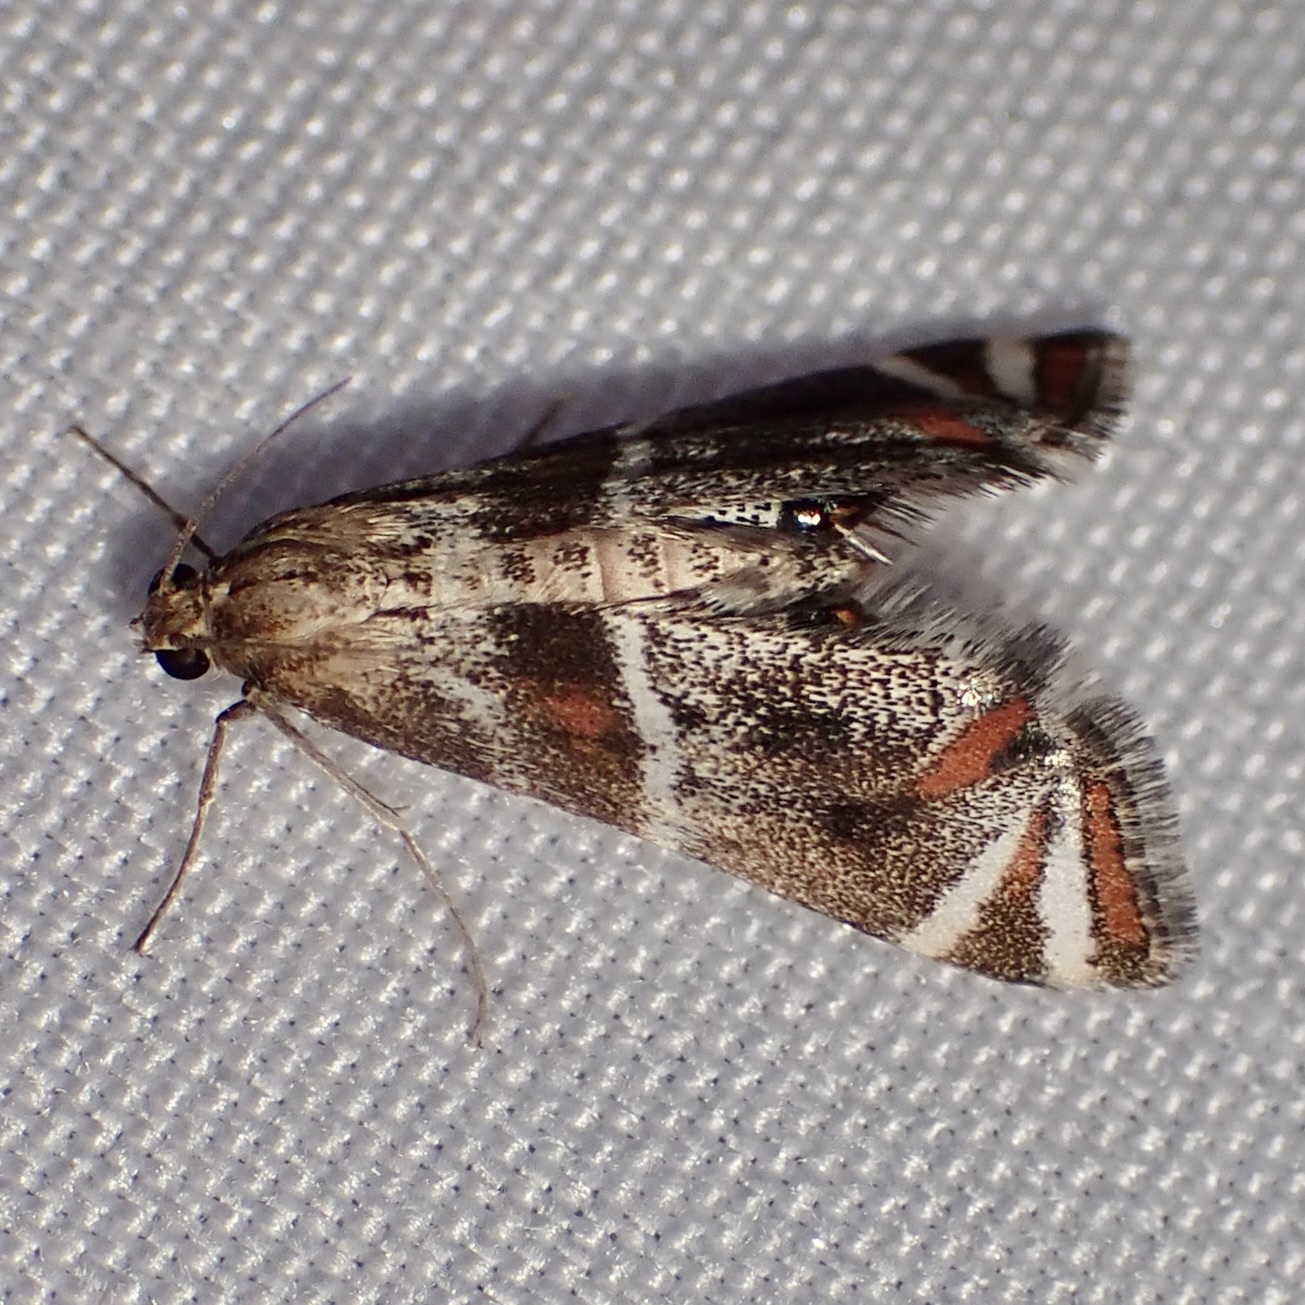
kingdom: Animalia
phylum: Arthropoda
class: Insecta
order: Lepidoptera
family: Crambidae
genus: Petrophila
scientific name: Petrophila jaliscalis
